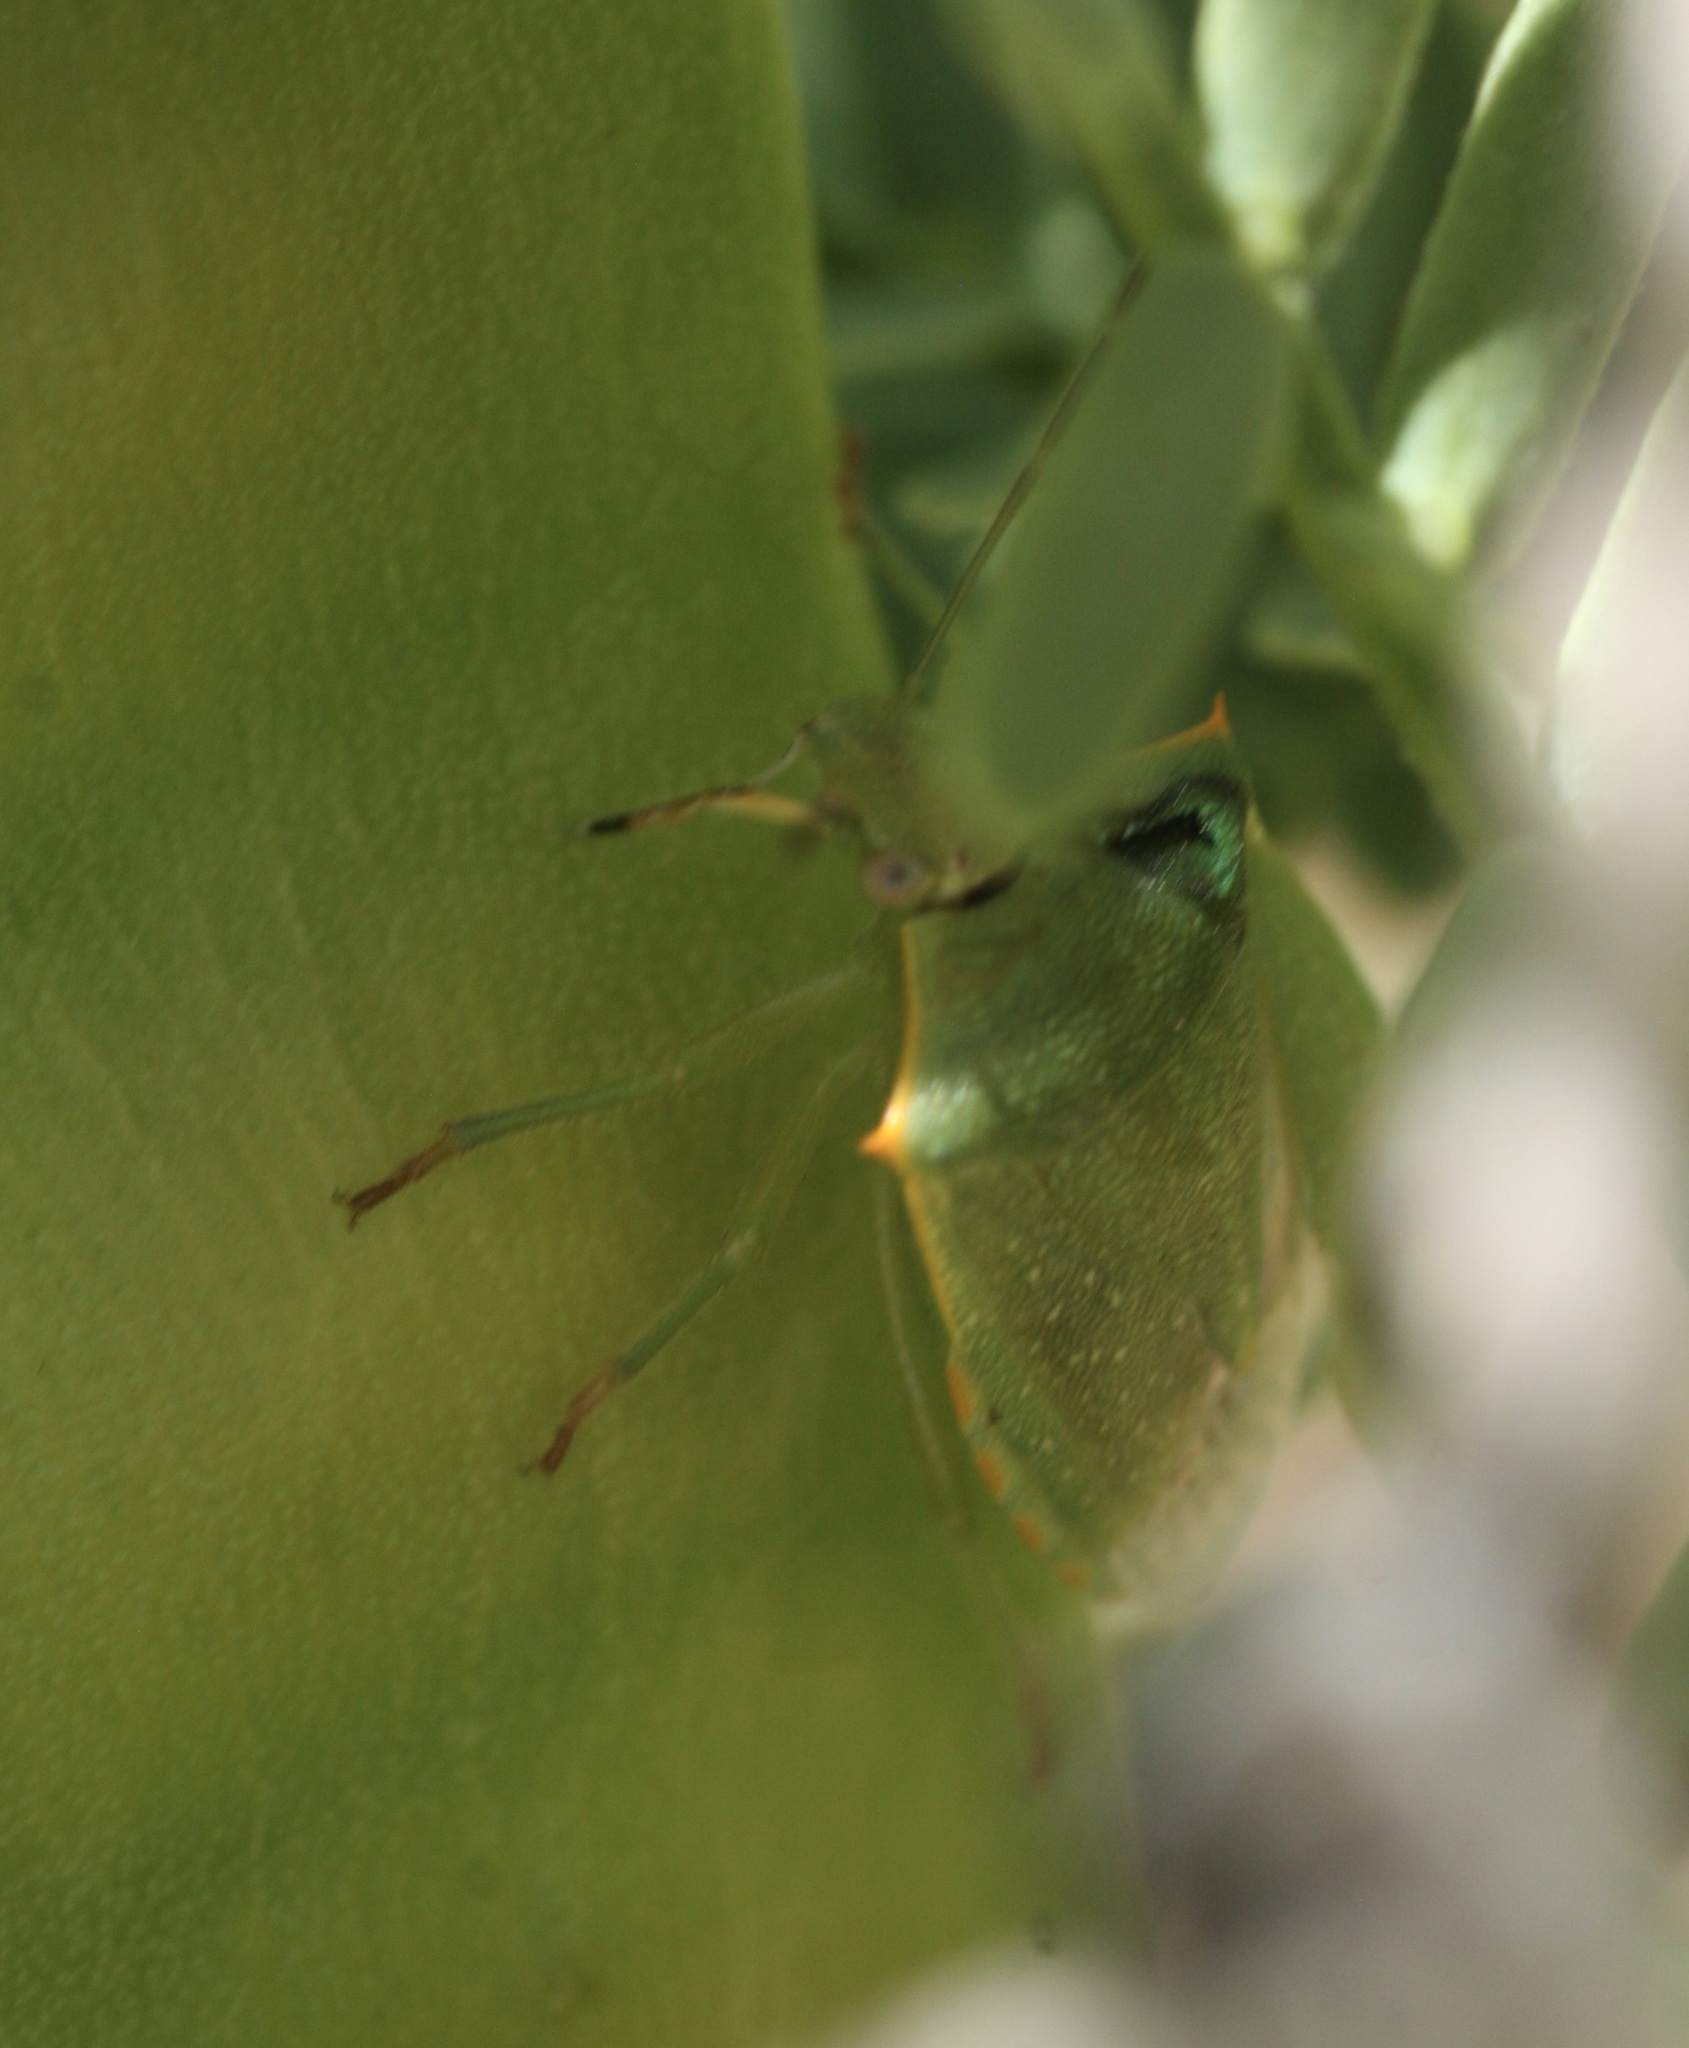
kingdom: Animalia
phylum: Arthropoda
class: Insecta
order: Hemiptera
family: Pentatomidae
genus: Thyanta
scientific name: Thyanta accerra
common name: Stink bug
